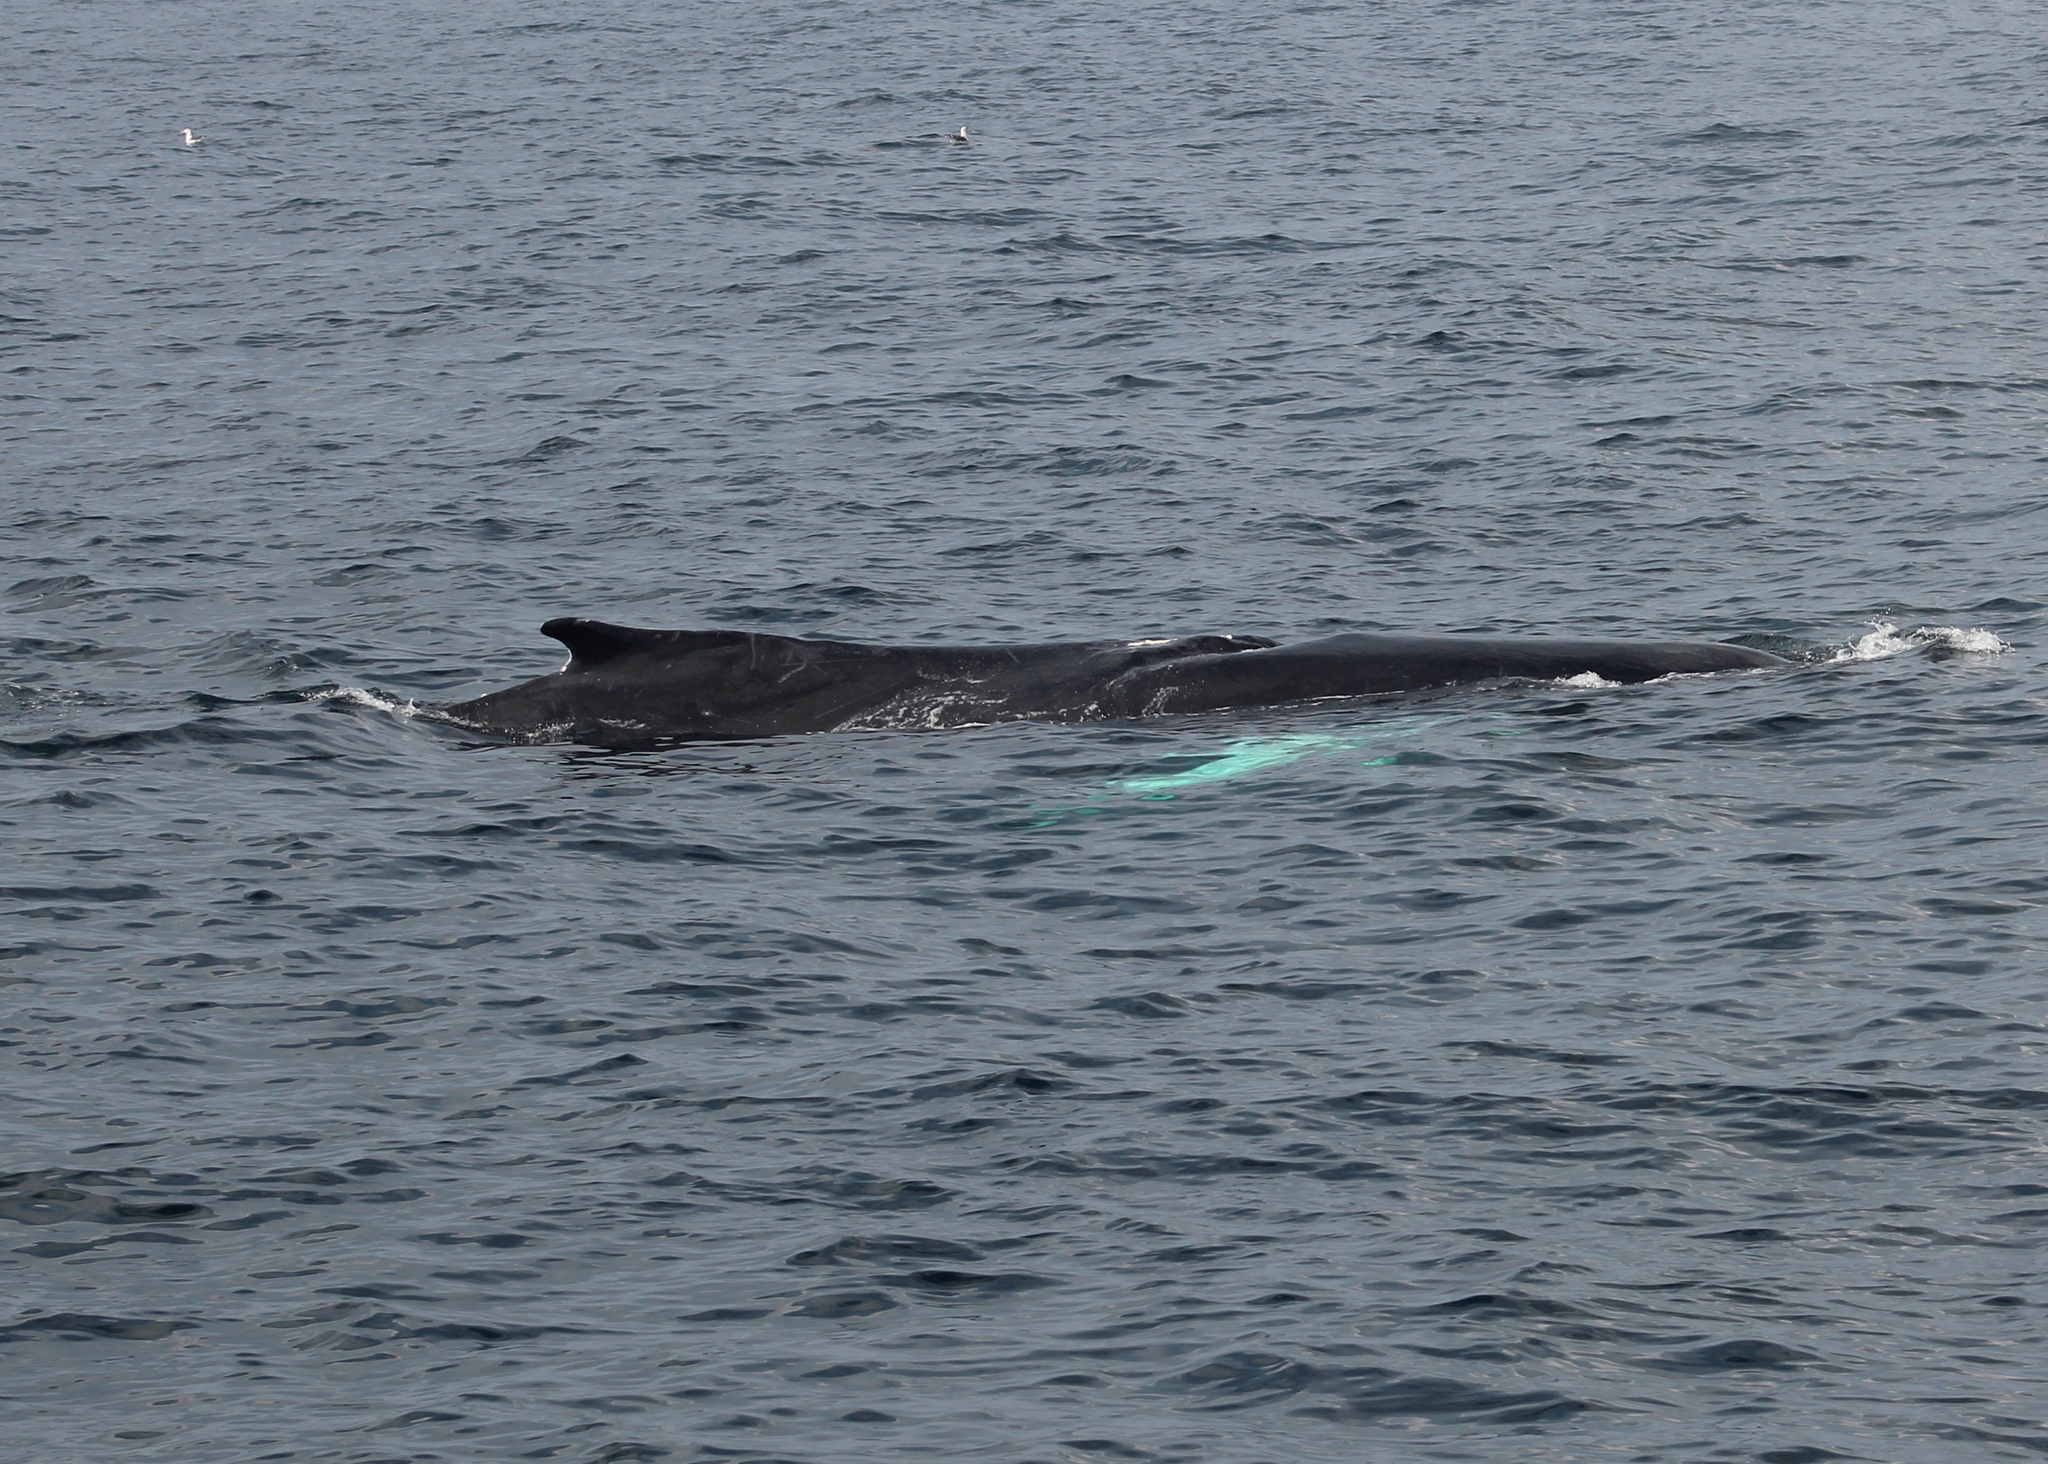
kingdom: Animalia
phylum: Chordata
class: Mammalia
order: Cetacea
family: Balaenopteridae
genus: Megaptera
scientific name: Megaptera novaeangliae
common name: Humpback whale
